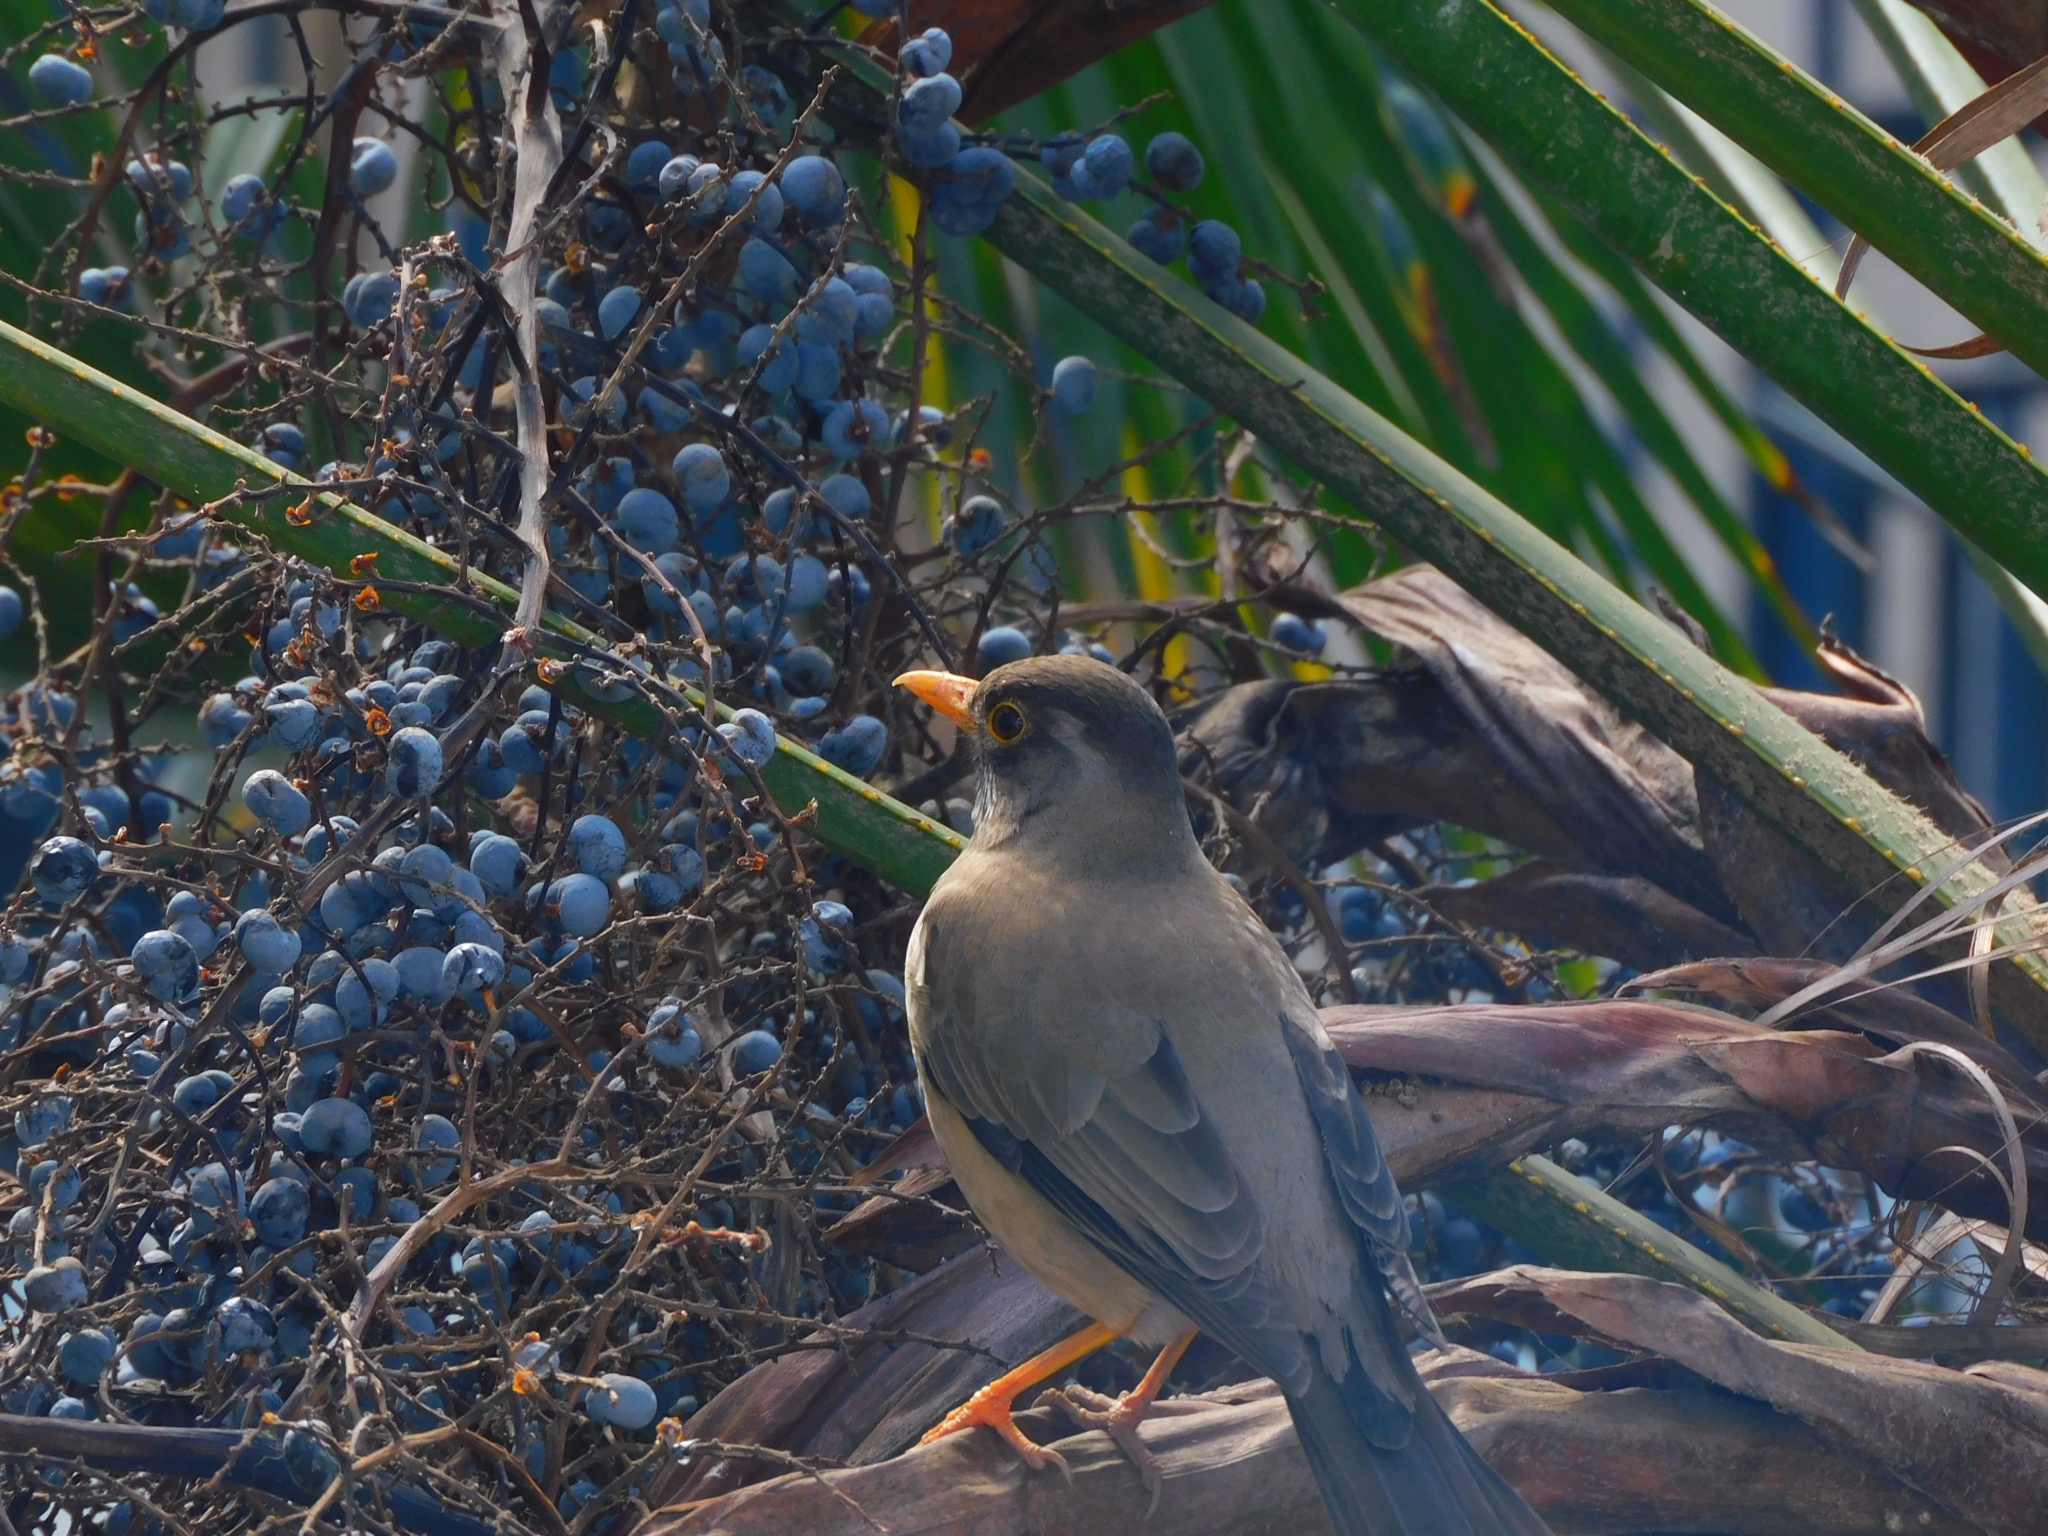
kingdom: Animalia
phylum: Chordata
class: Aves
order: Passeriformes
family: Turdidae
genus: Turdus
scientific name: Turdus falcklandii
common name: Austral thrush
